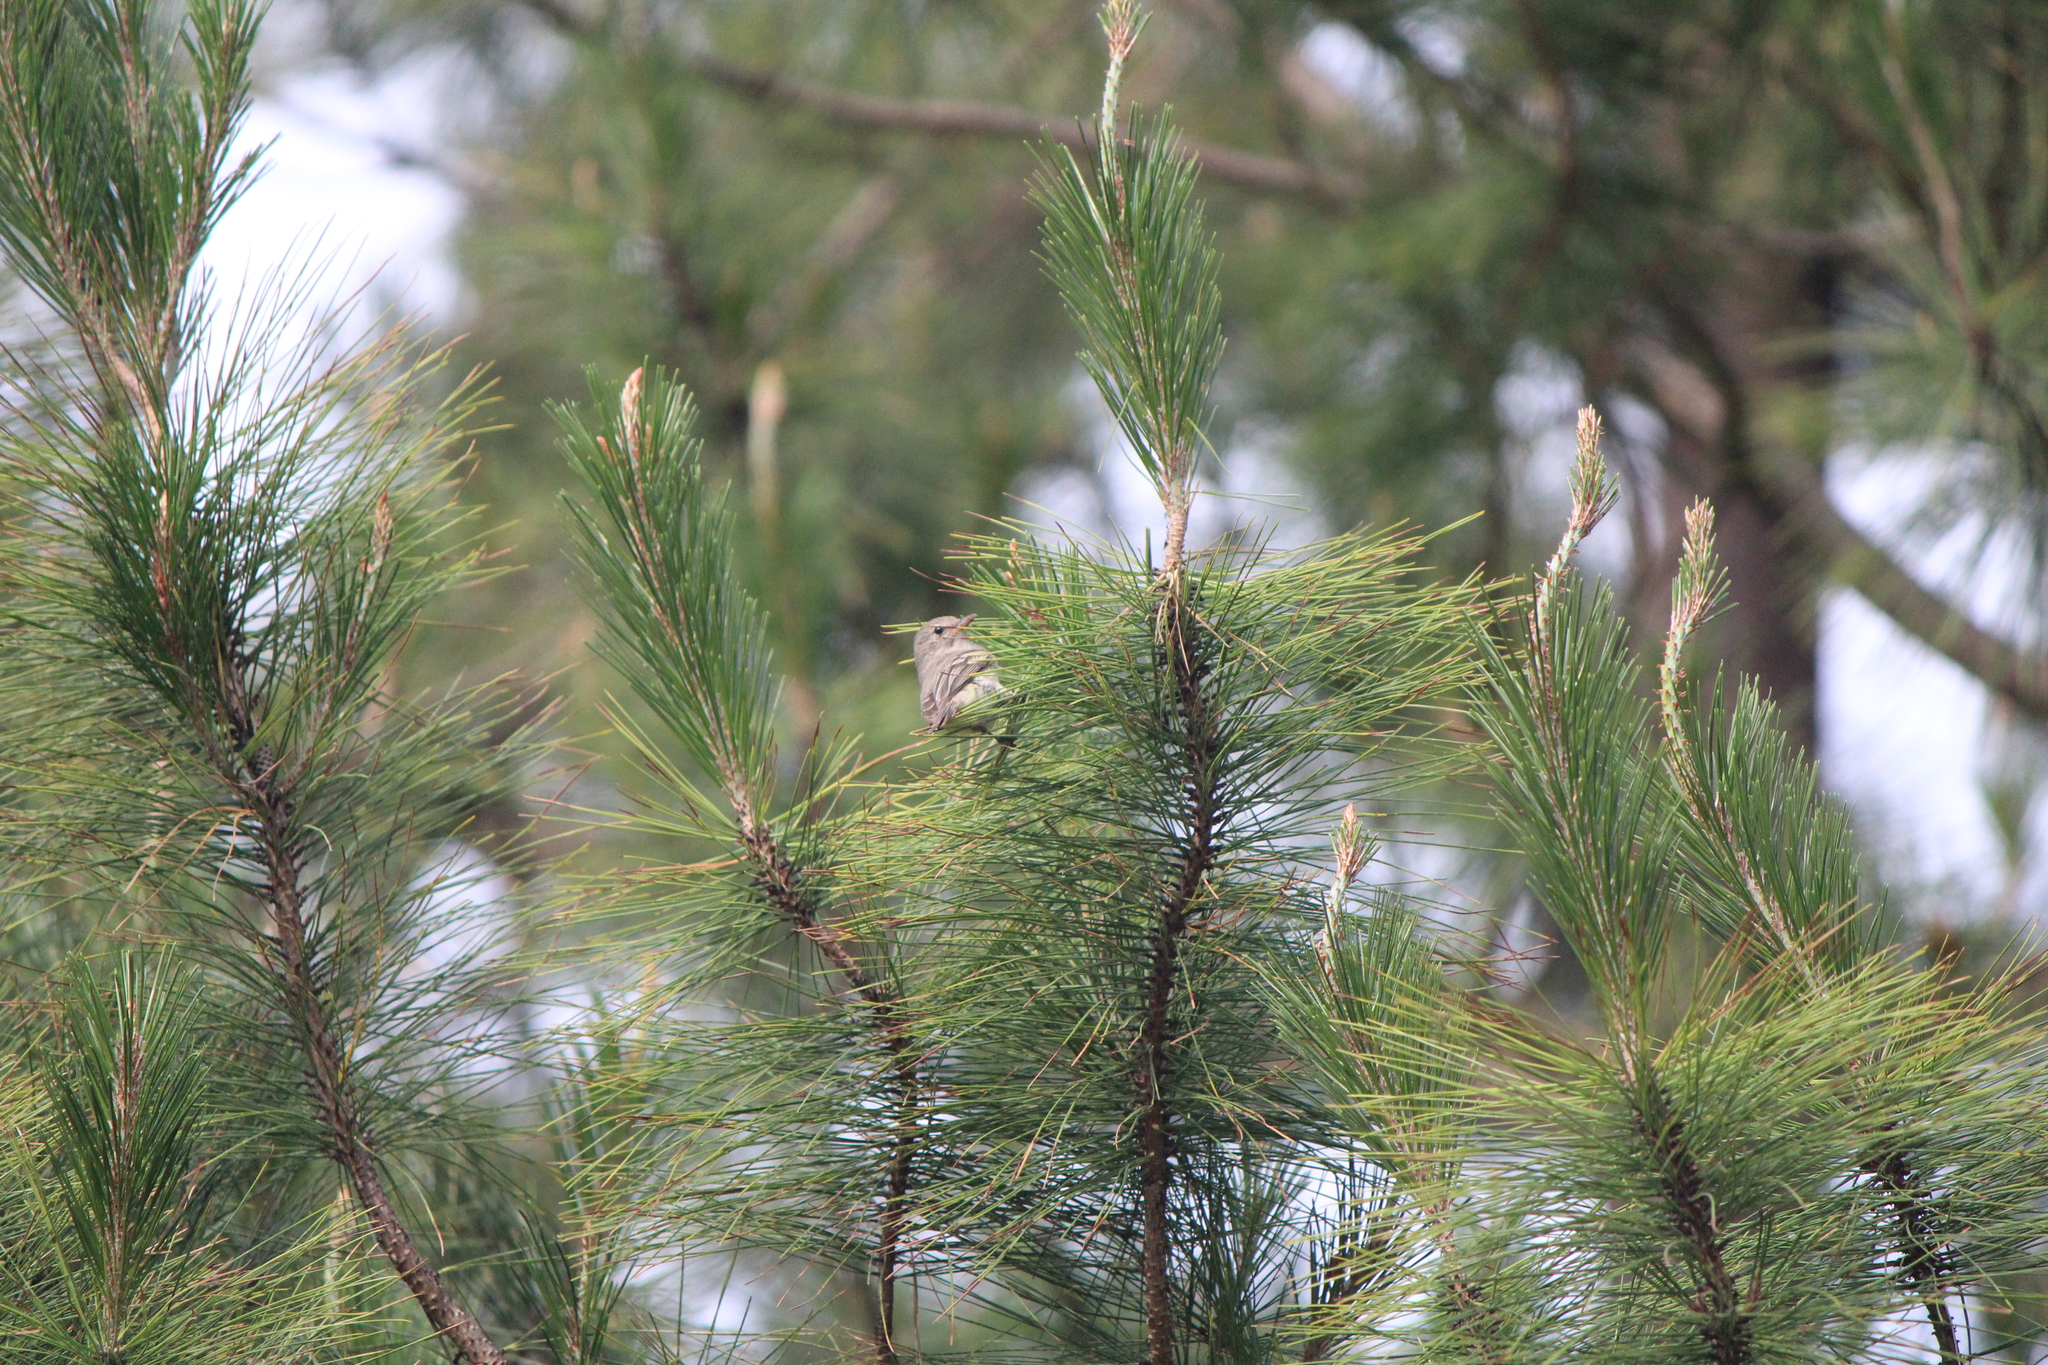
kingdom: Animalia
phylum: Chordata
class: Aves
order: Passeriformes
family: Tyrannidae
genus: Camptostoma
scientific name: Camptostoma imberbe
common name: Northern beardless-tyrannulet
